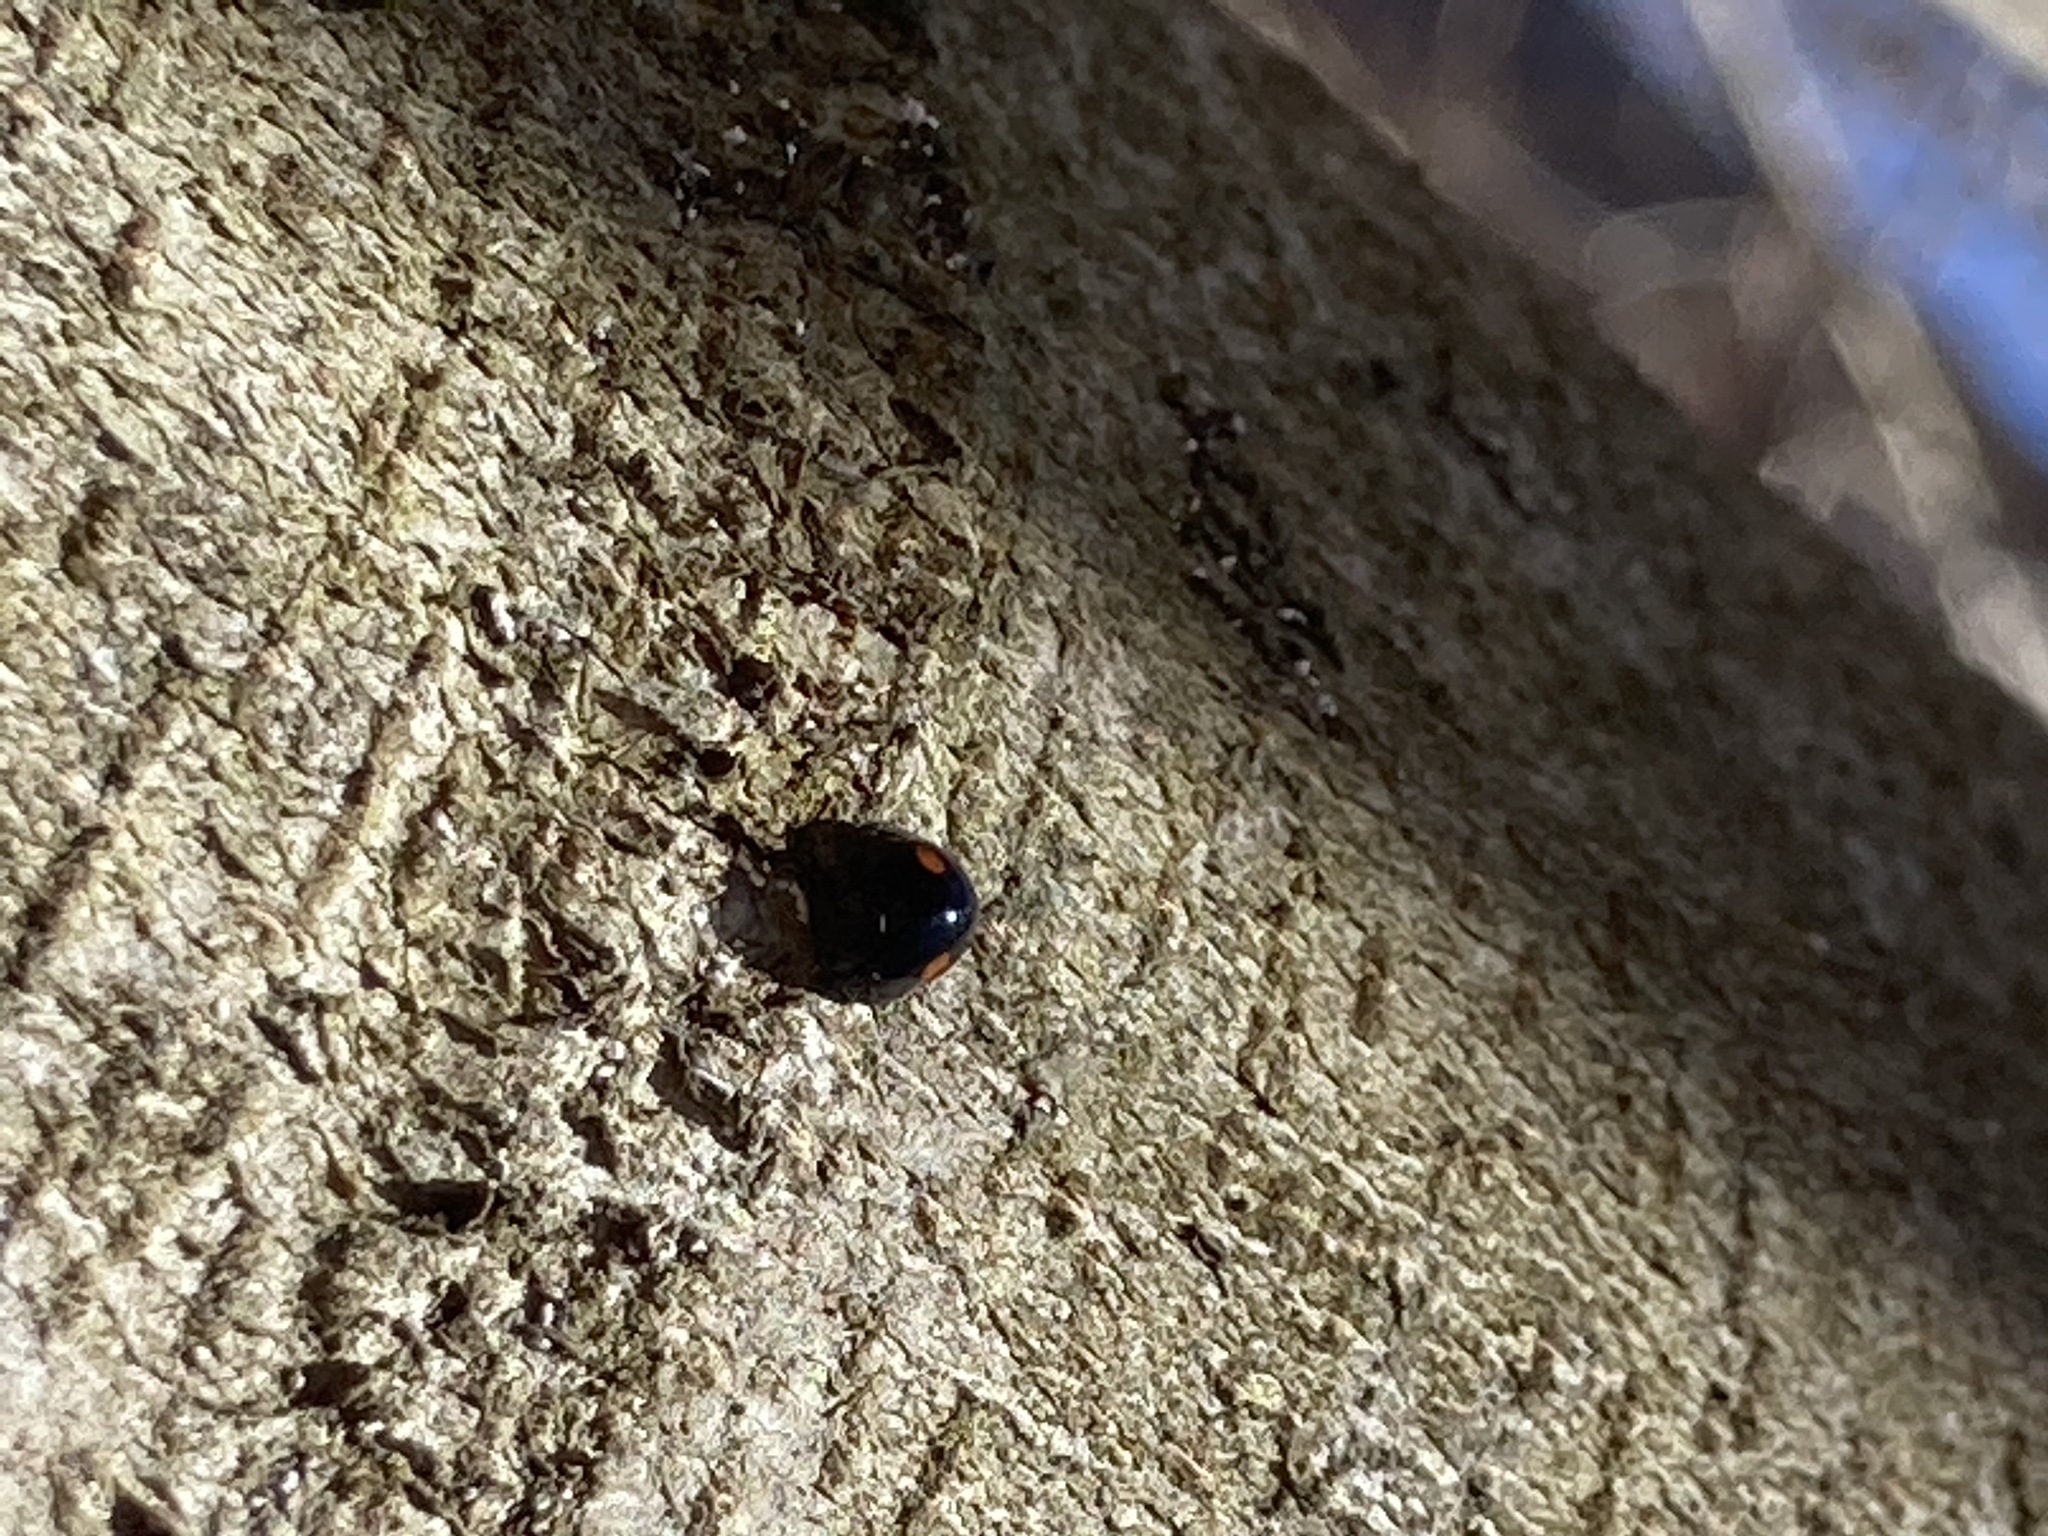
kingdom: Animalia
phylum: Arthropoda
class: Insecta
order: Coleoptera
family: Coccinellidae
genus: Chilocorus
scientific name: Chilocorus stigma
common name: Twicestabbed lady beetle
